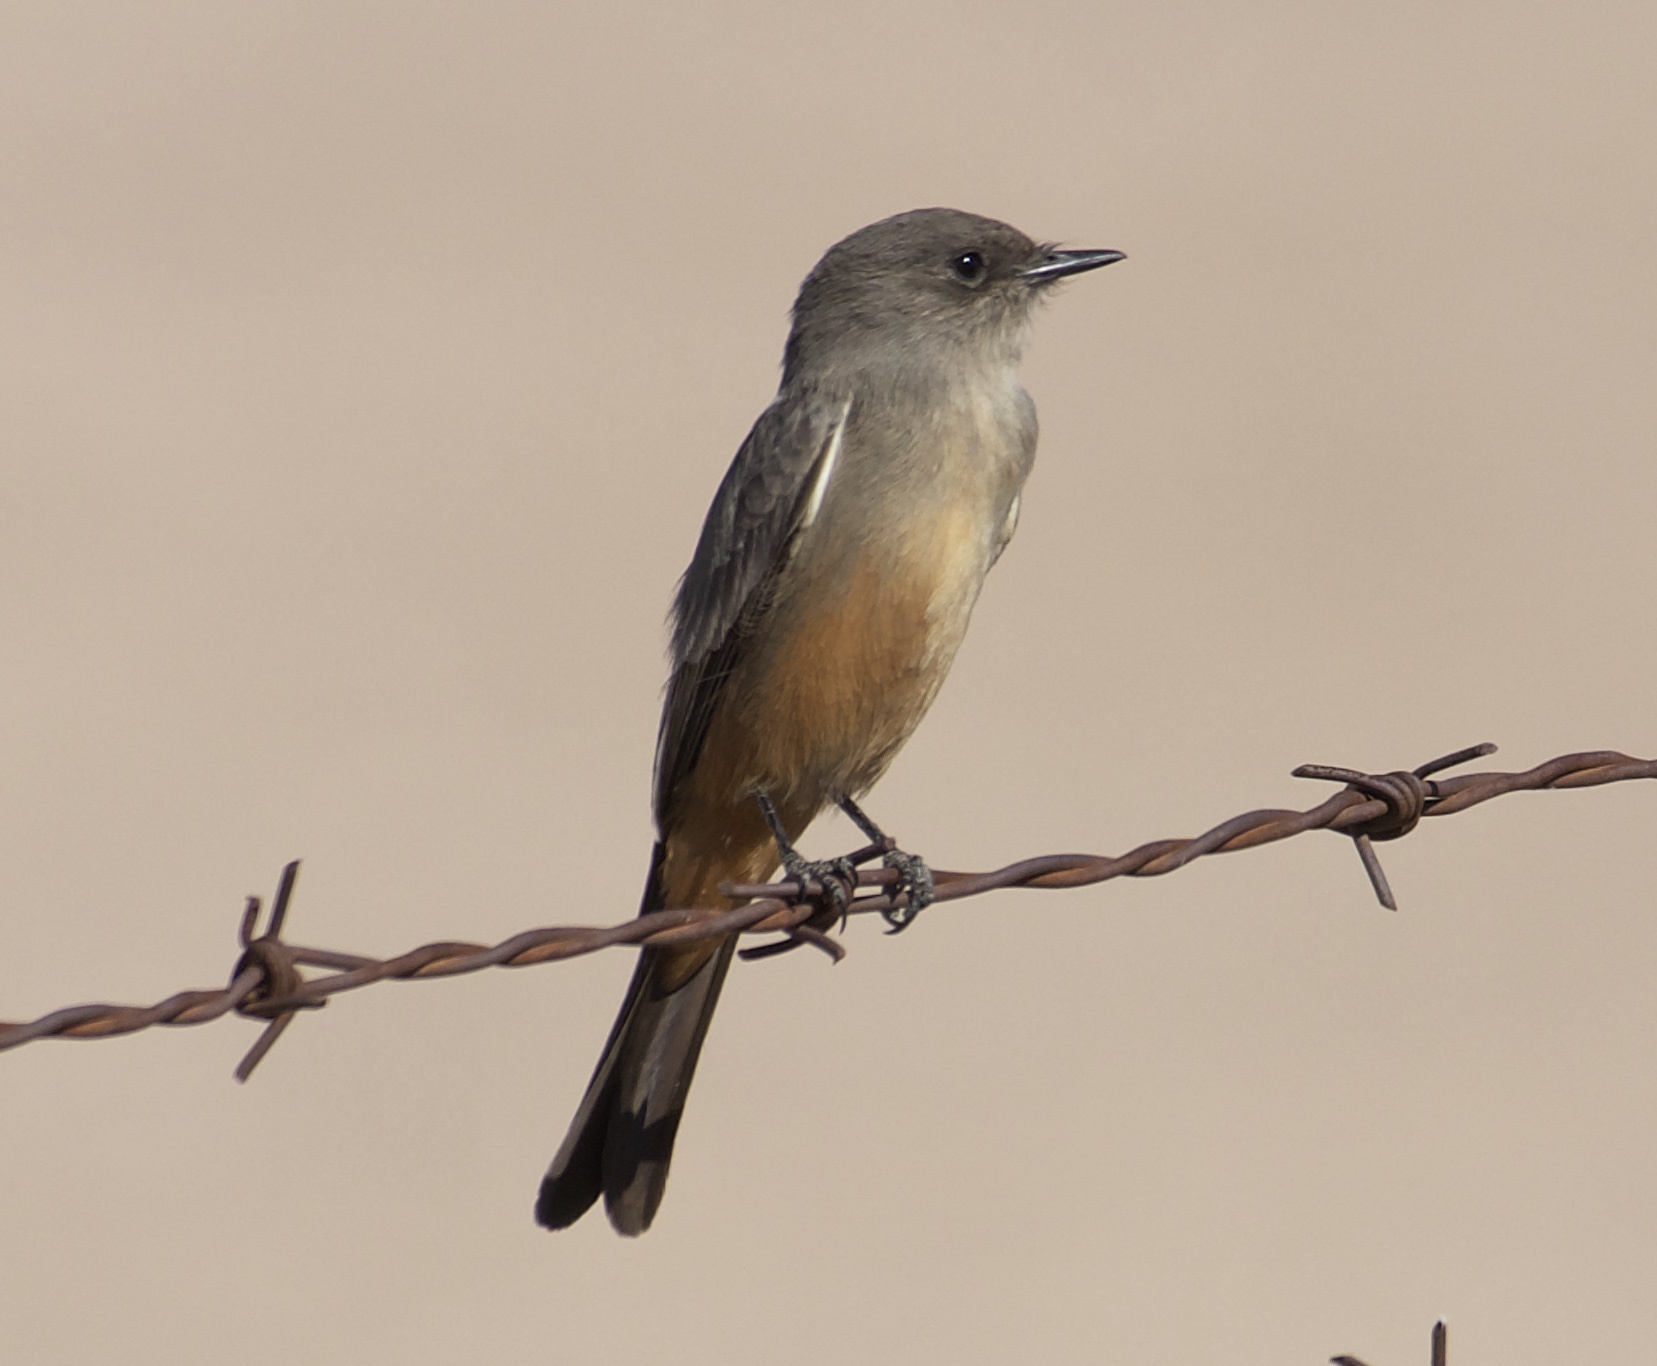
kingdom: Animalia
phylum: Chordata
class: Aves
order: Passeriformes
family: Tyrannidae
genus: Sayornis
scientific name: Sayornis saya
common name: Say's phoebe
